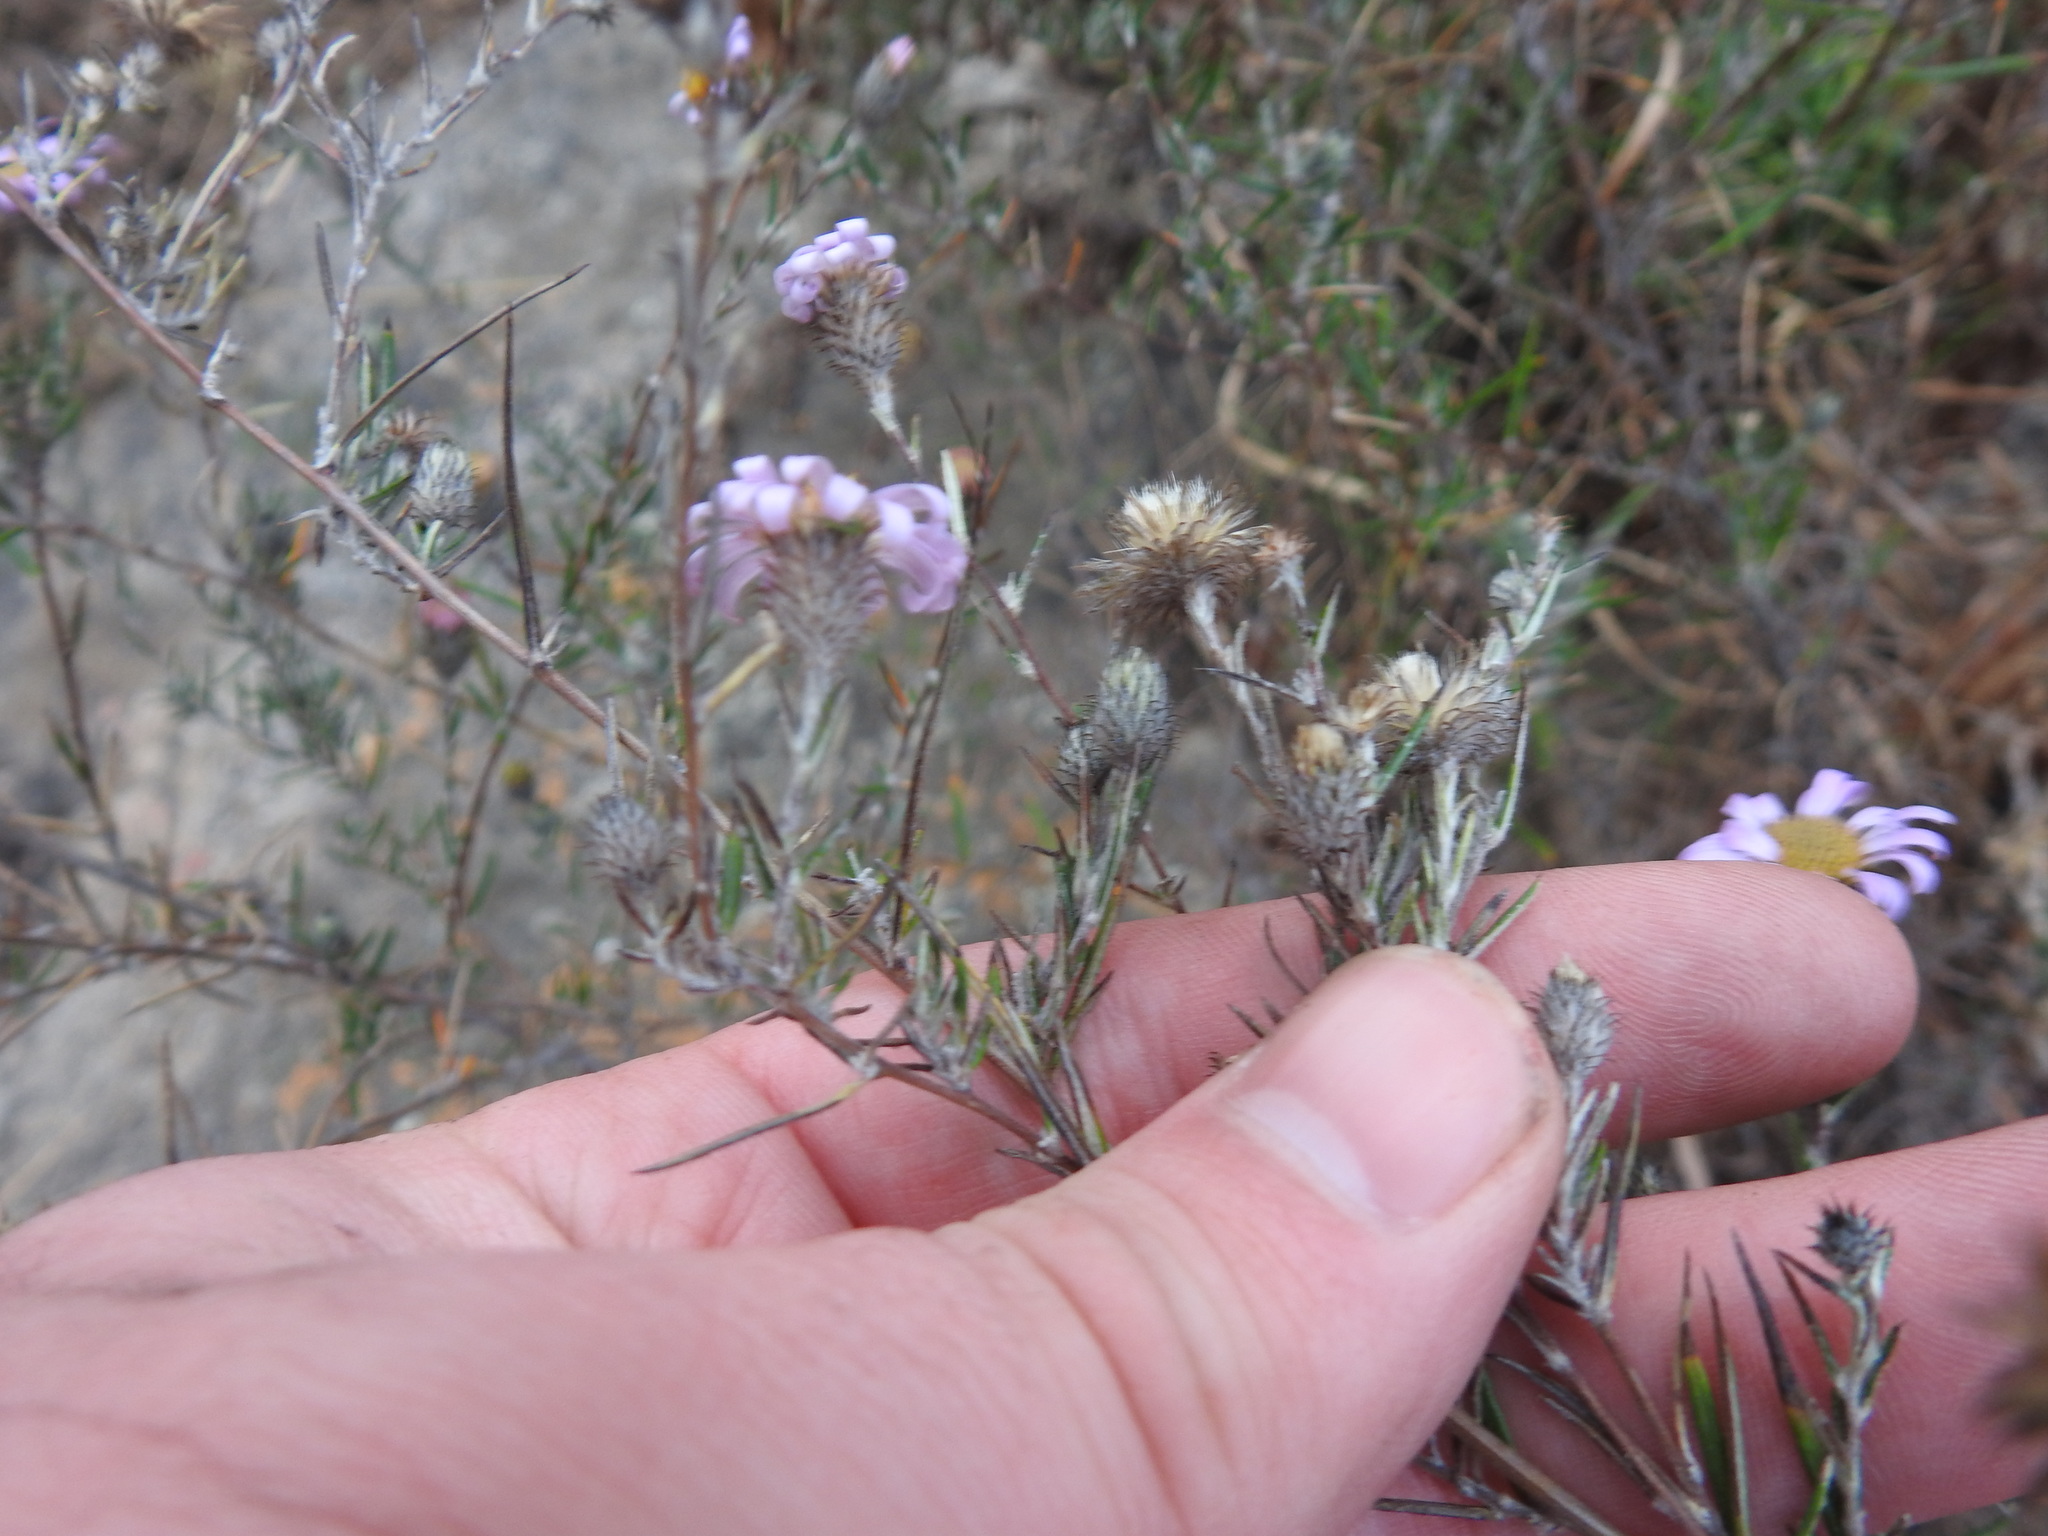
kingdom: Plantae
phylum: Tracheophyta
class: Magnoliopsida
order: Asterales
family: Asteraceae
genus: Athrixia
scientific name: Athrixia elata
